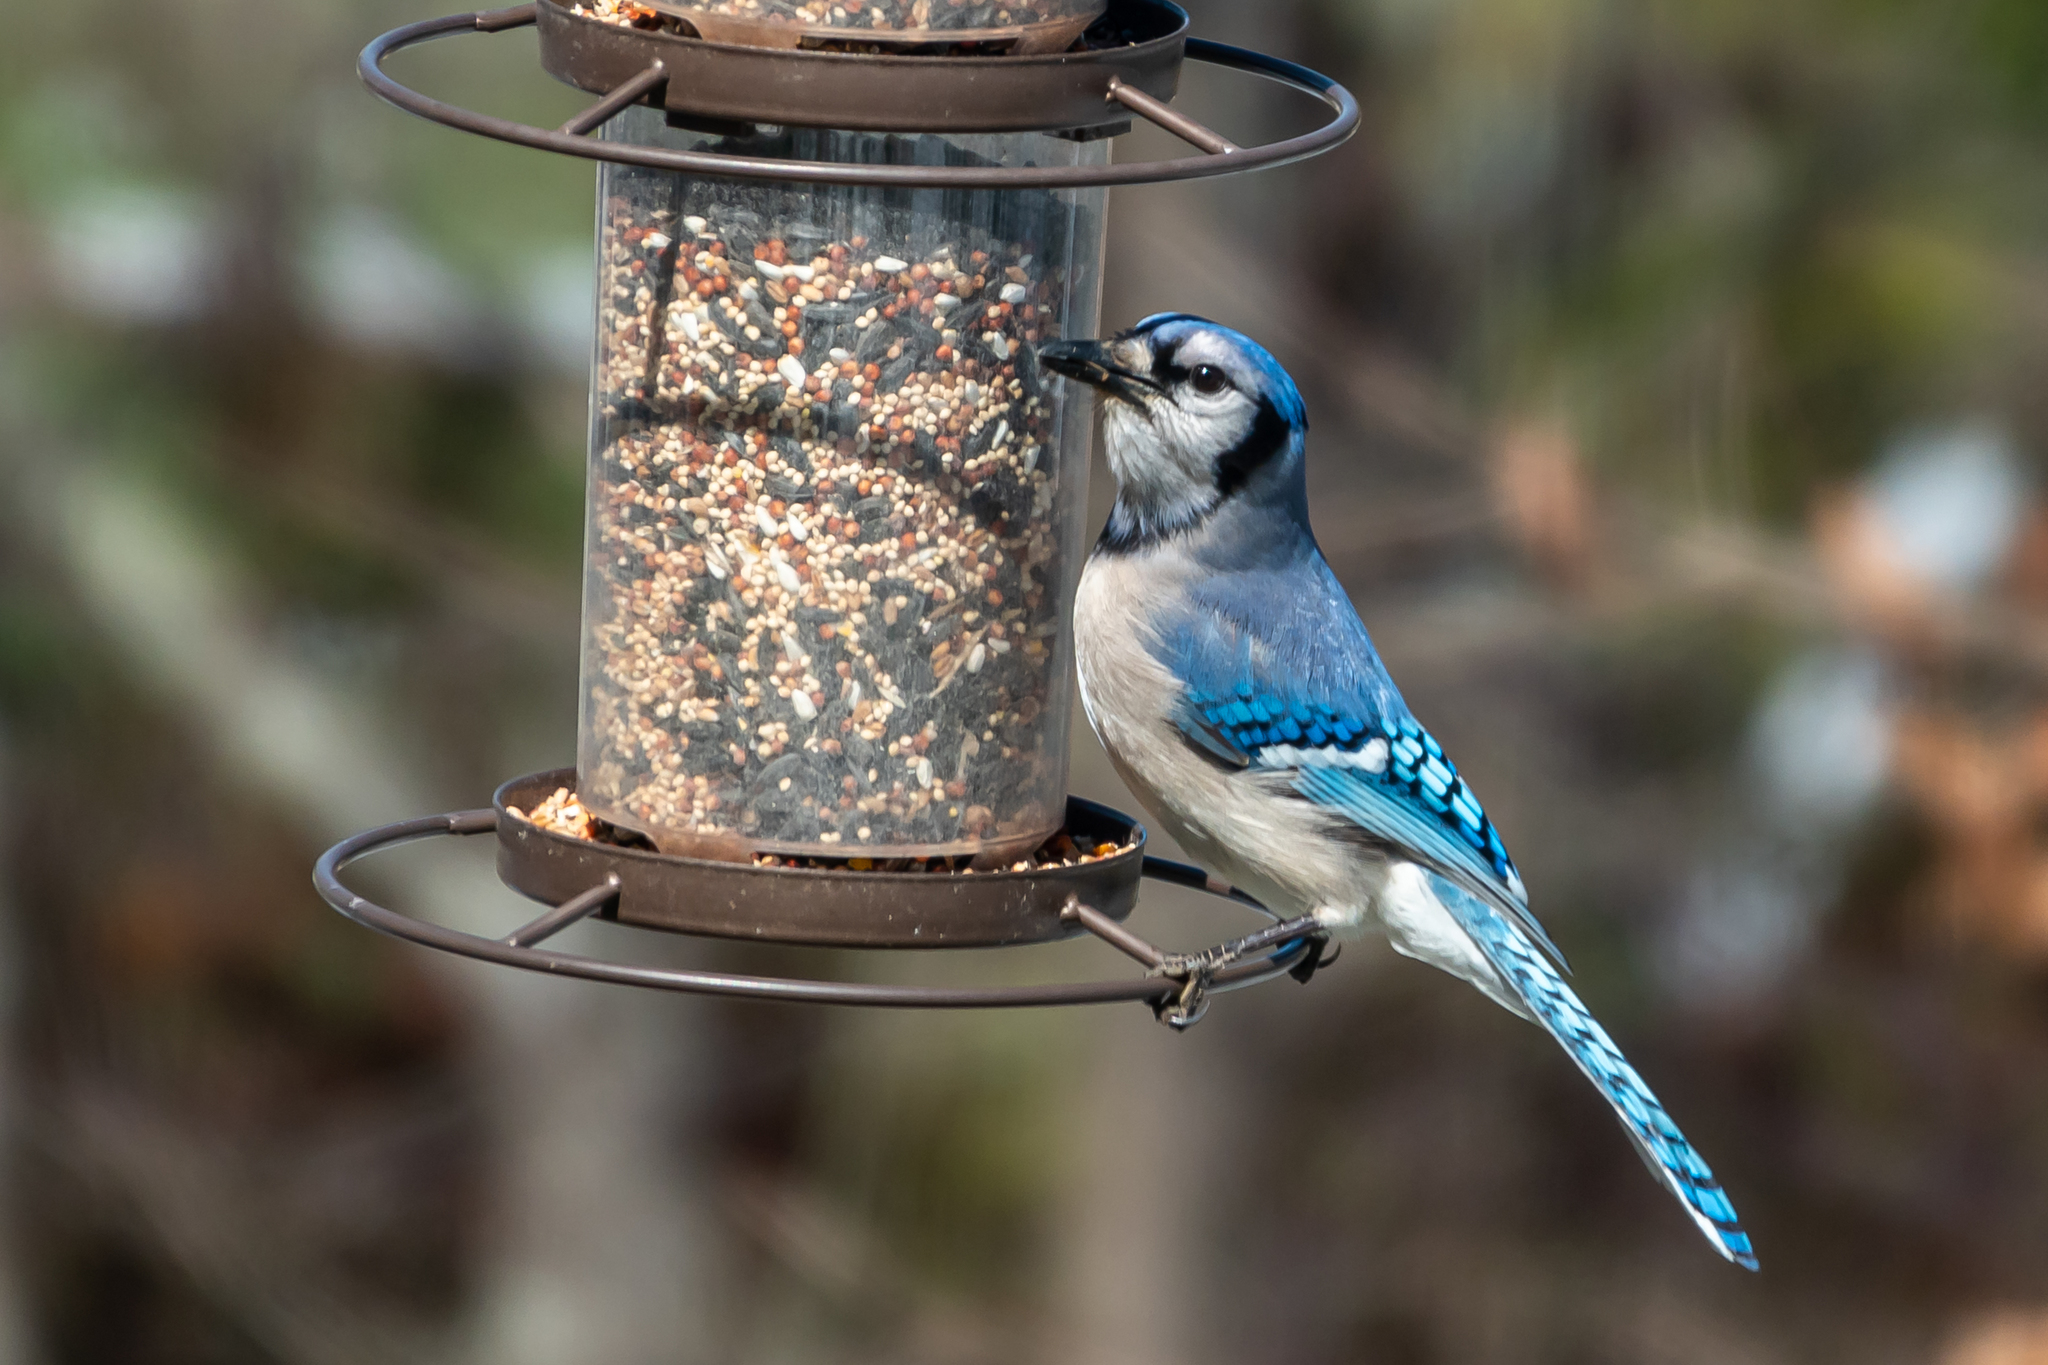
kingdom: Animalia
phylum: Chordata
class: Aves
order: Passeriformes
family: Corvidae
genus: Cyanocitta
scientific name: Cyanocitta cristata
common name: Blue jay
